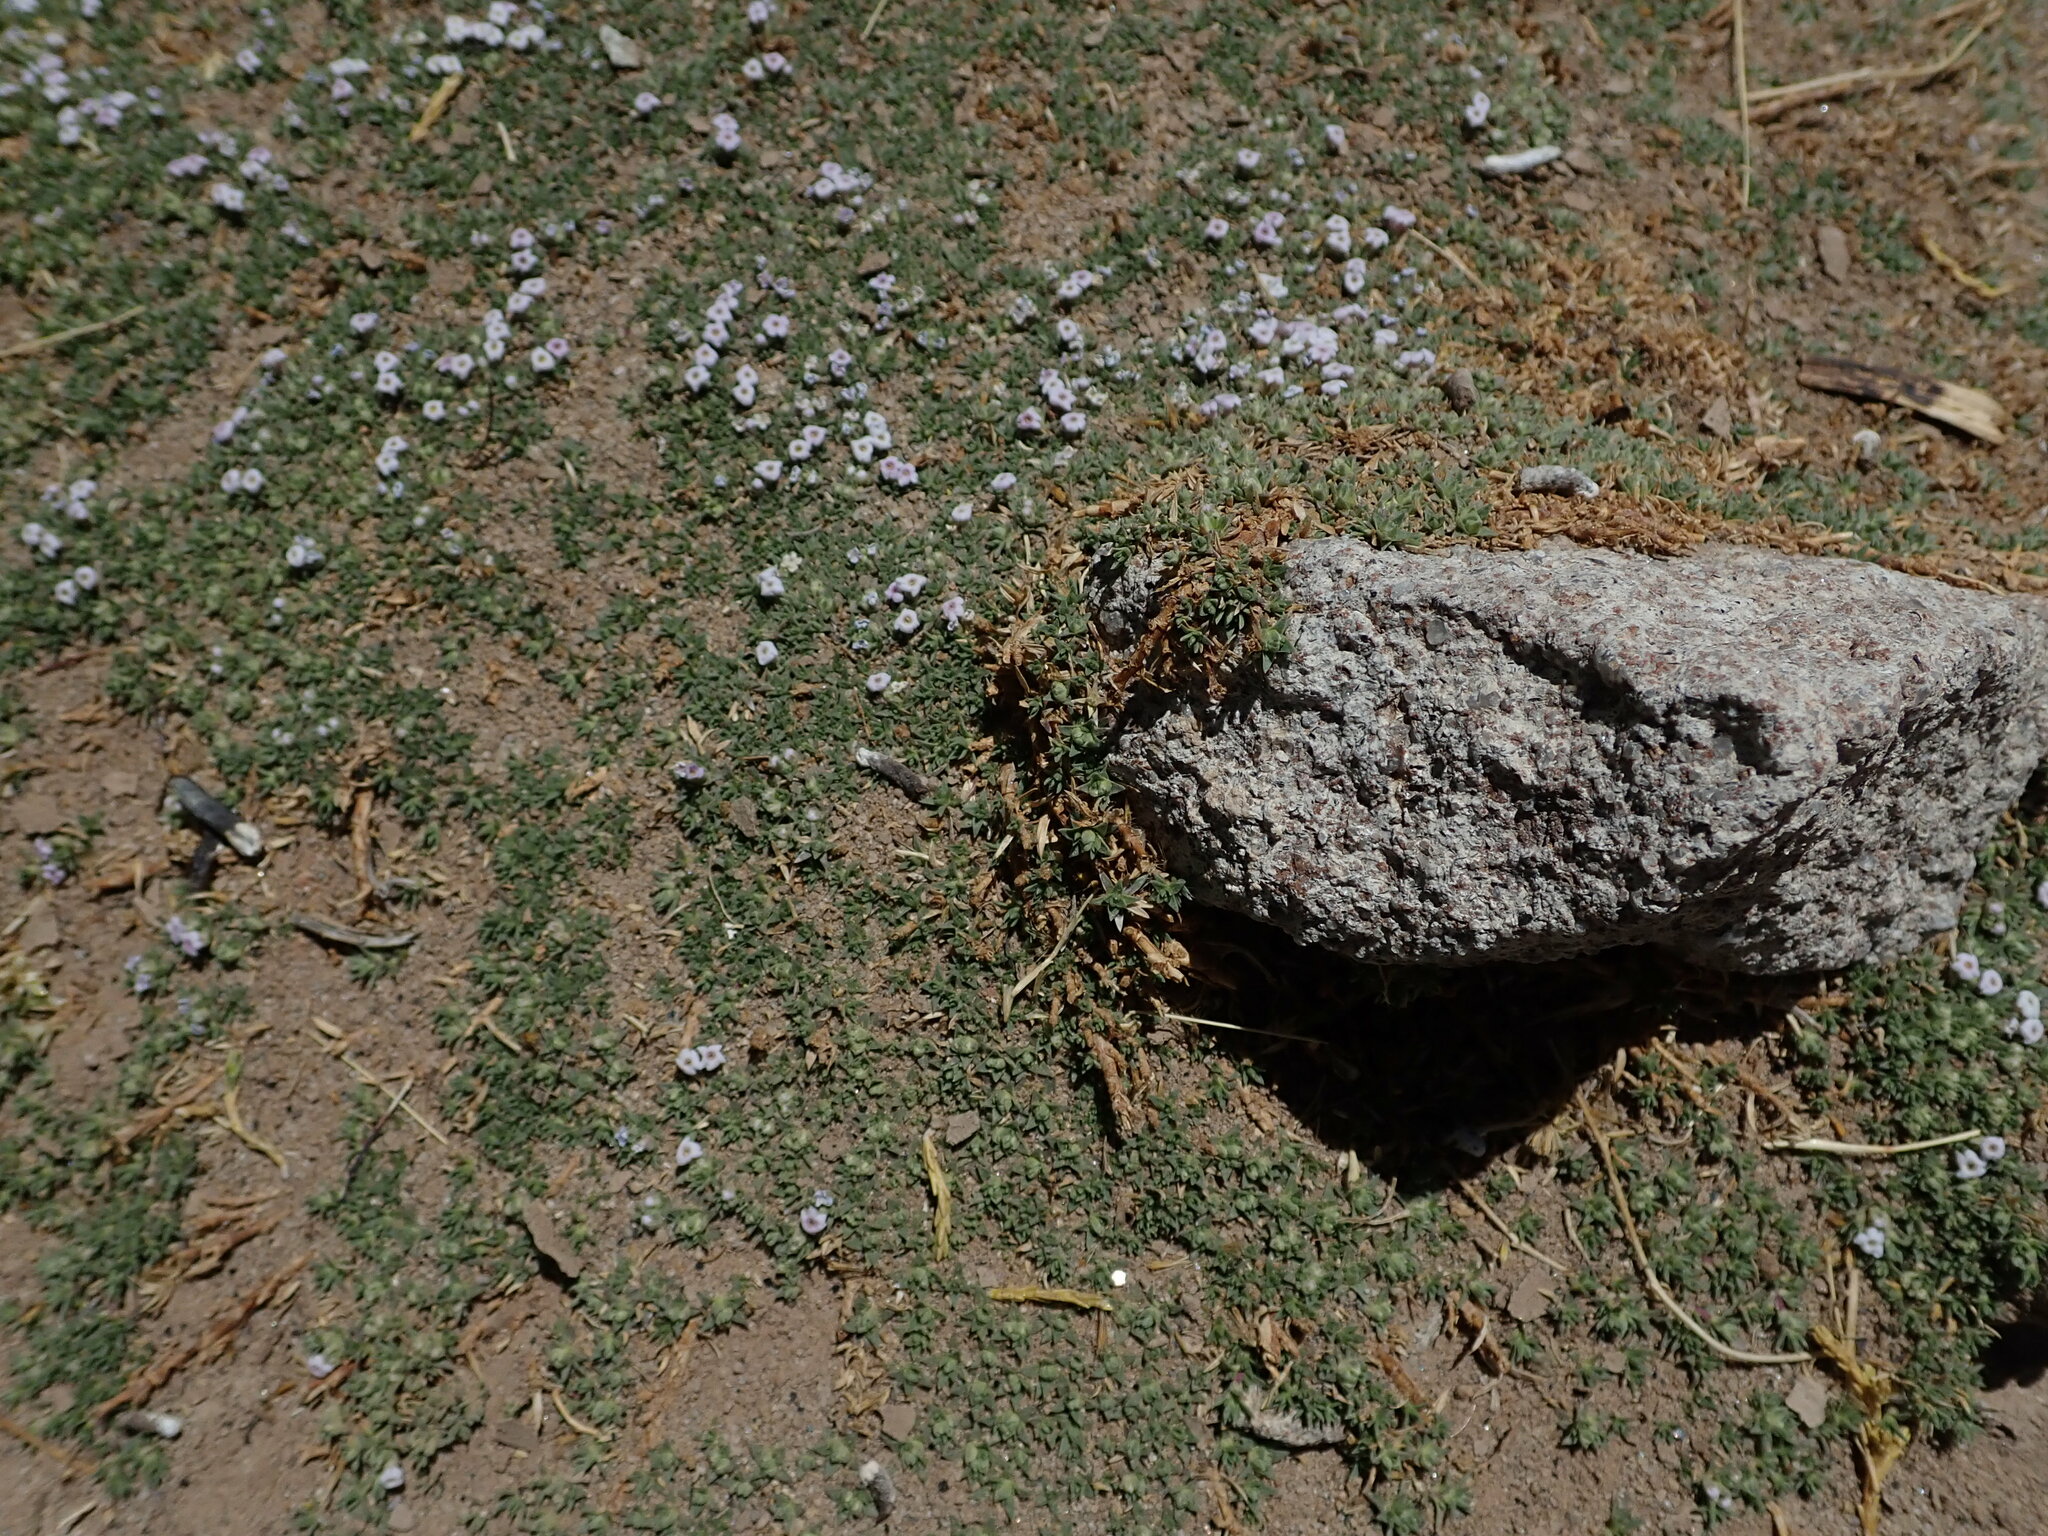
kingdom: Plantae
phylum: Tracheophyta
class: Magnoliopsida
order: Lamiales
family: Verbenaceae
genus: Junellia
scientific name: Junellia minima
